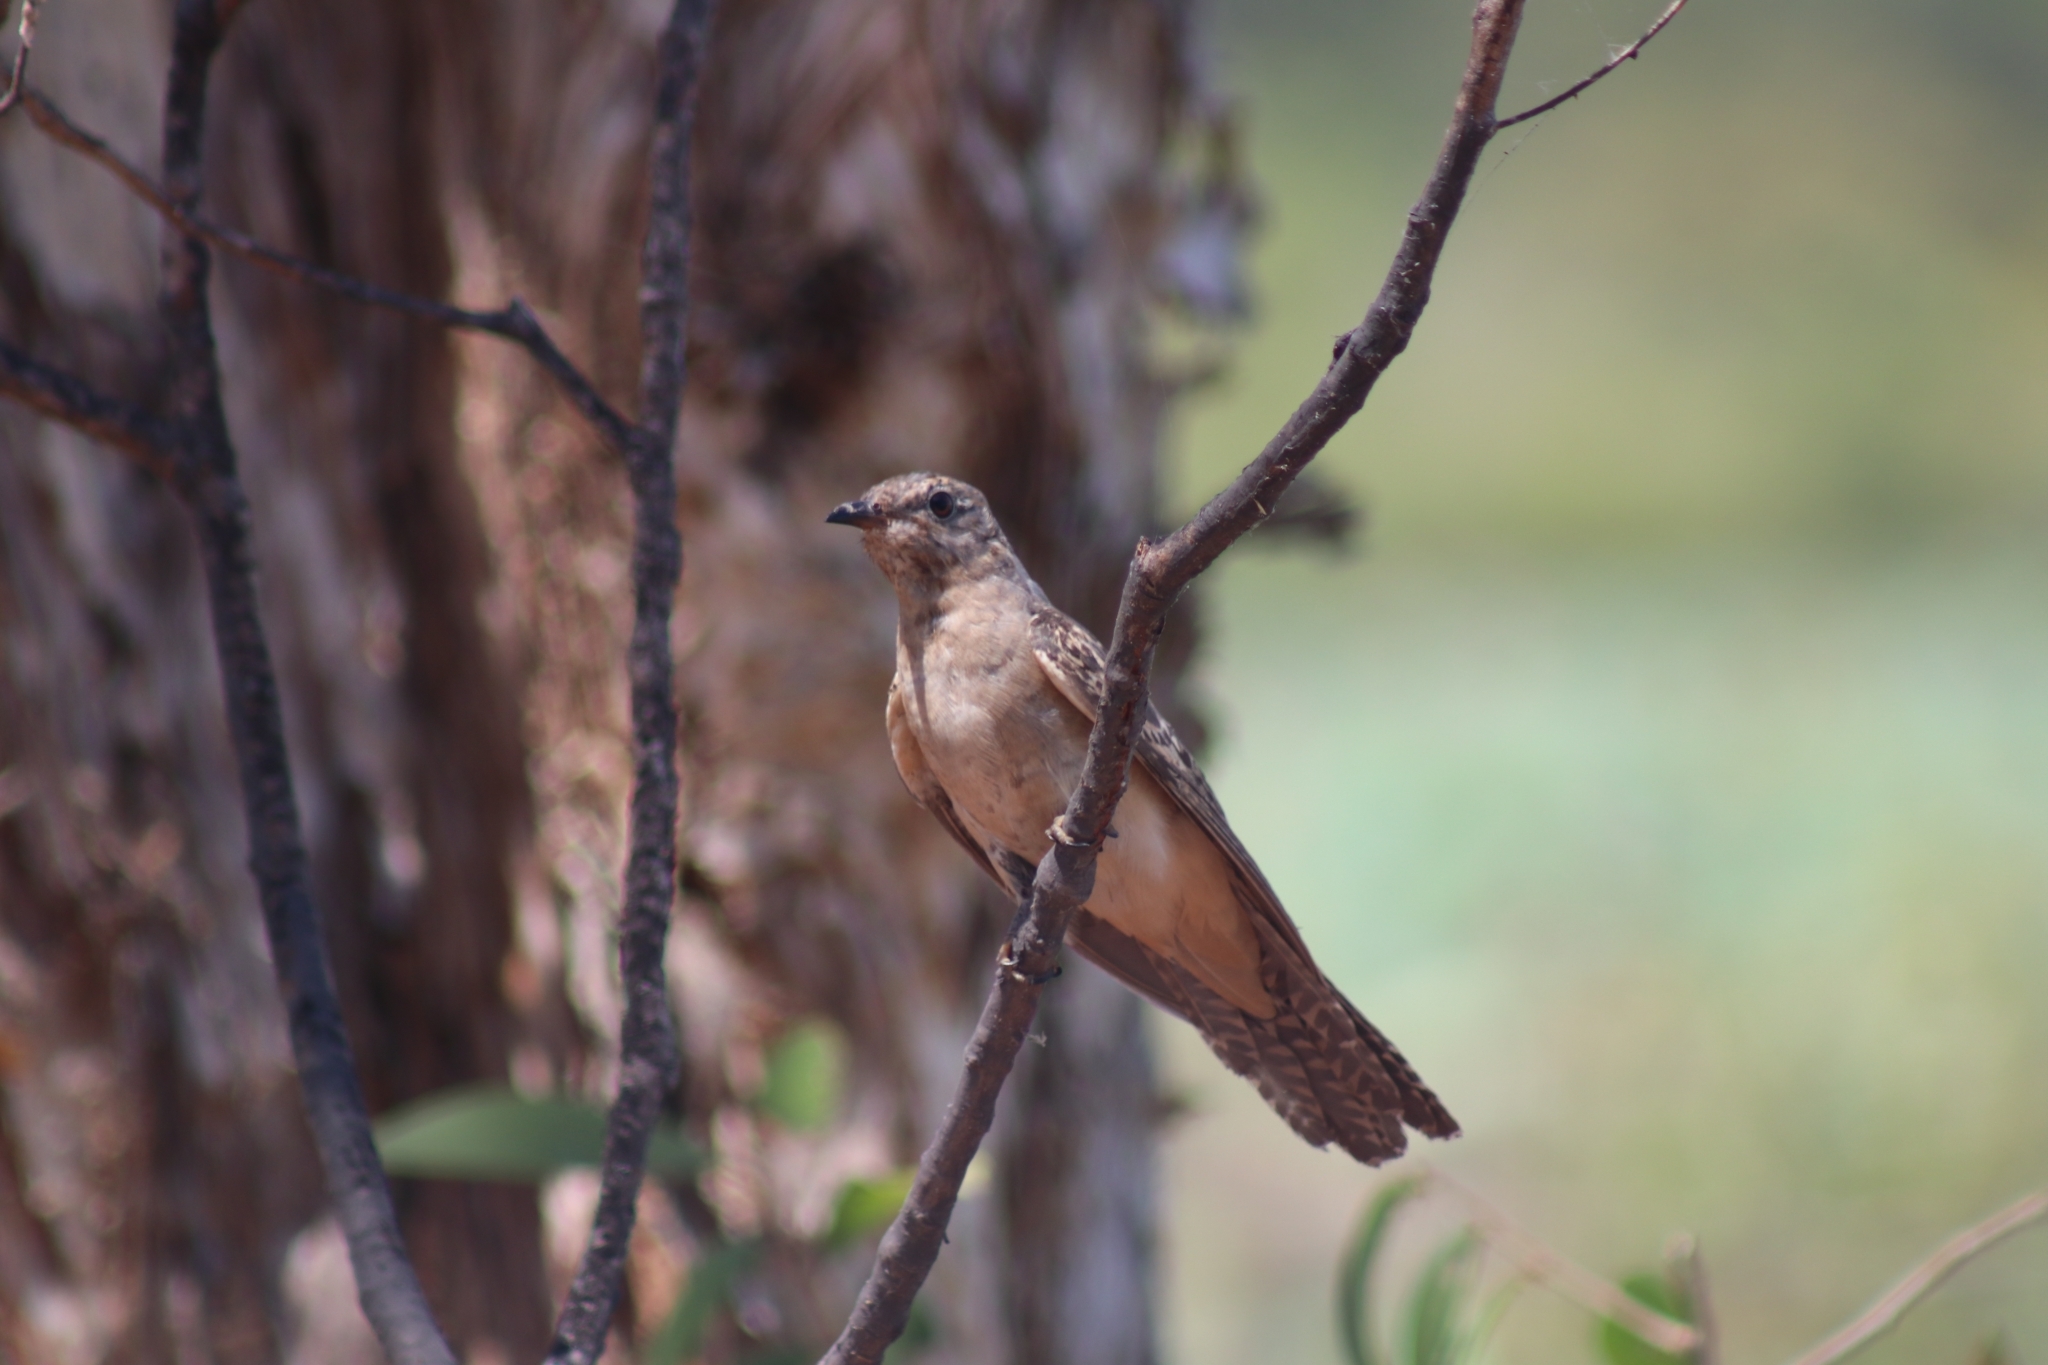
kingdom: Animalia
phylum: Chordata
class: Aves
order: Cuculiformes
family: Cuculidae
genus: Cacomantis
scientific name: Cacomantis variolosus
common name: Brush cuckoo
